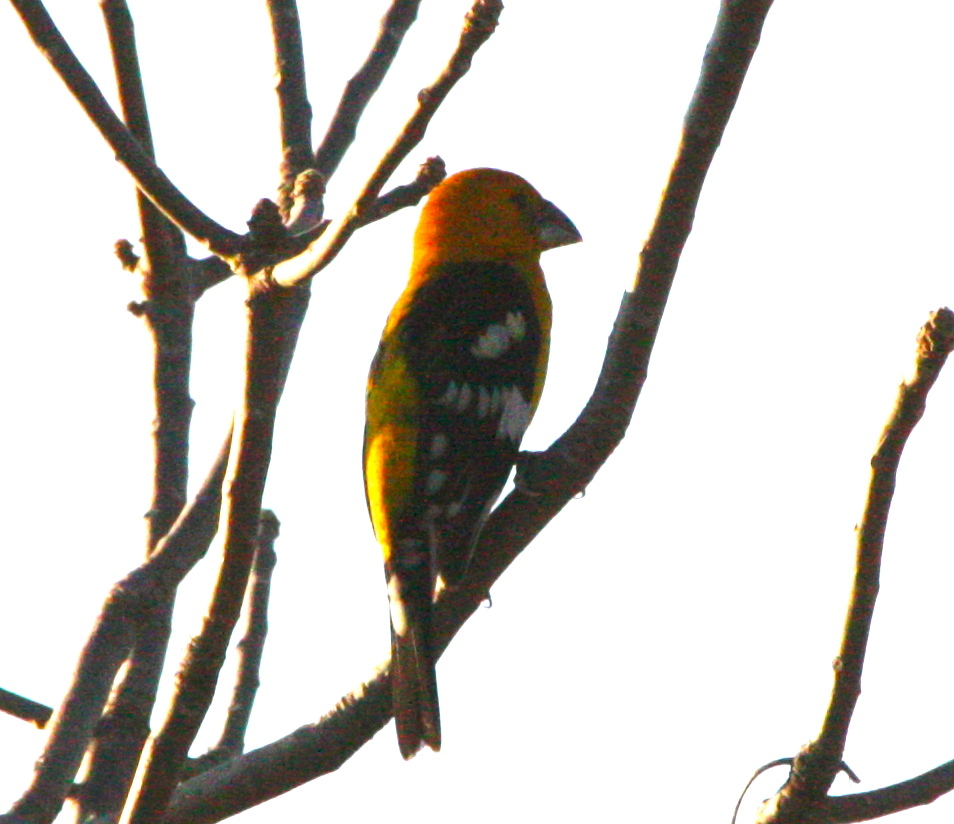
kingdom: Animalia
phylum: Chordata
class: Aves
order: Passeriformes
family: Cardinalidae
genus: Pheucticus
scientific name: Pheucticus chrysopeplus
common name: Yellow grosbeak
